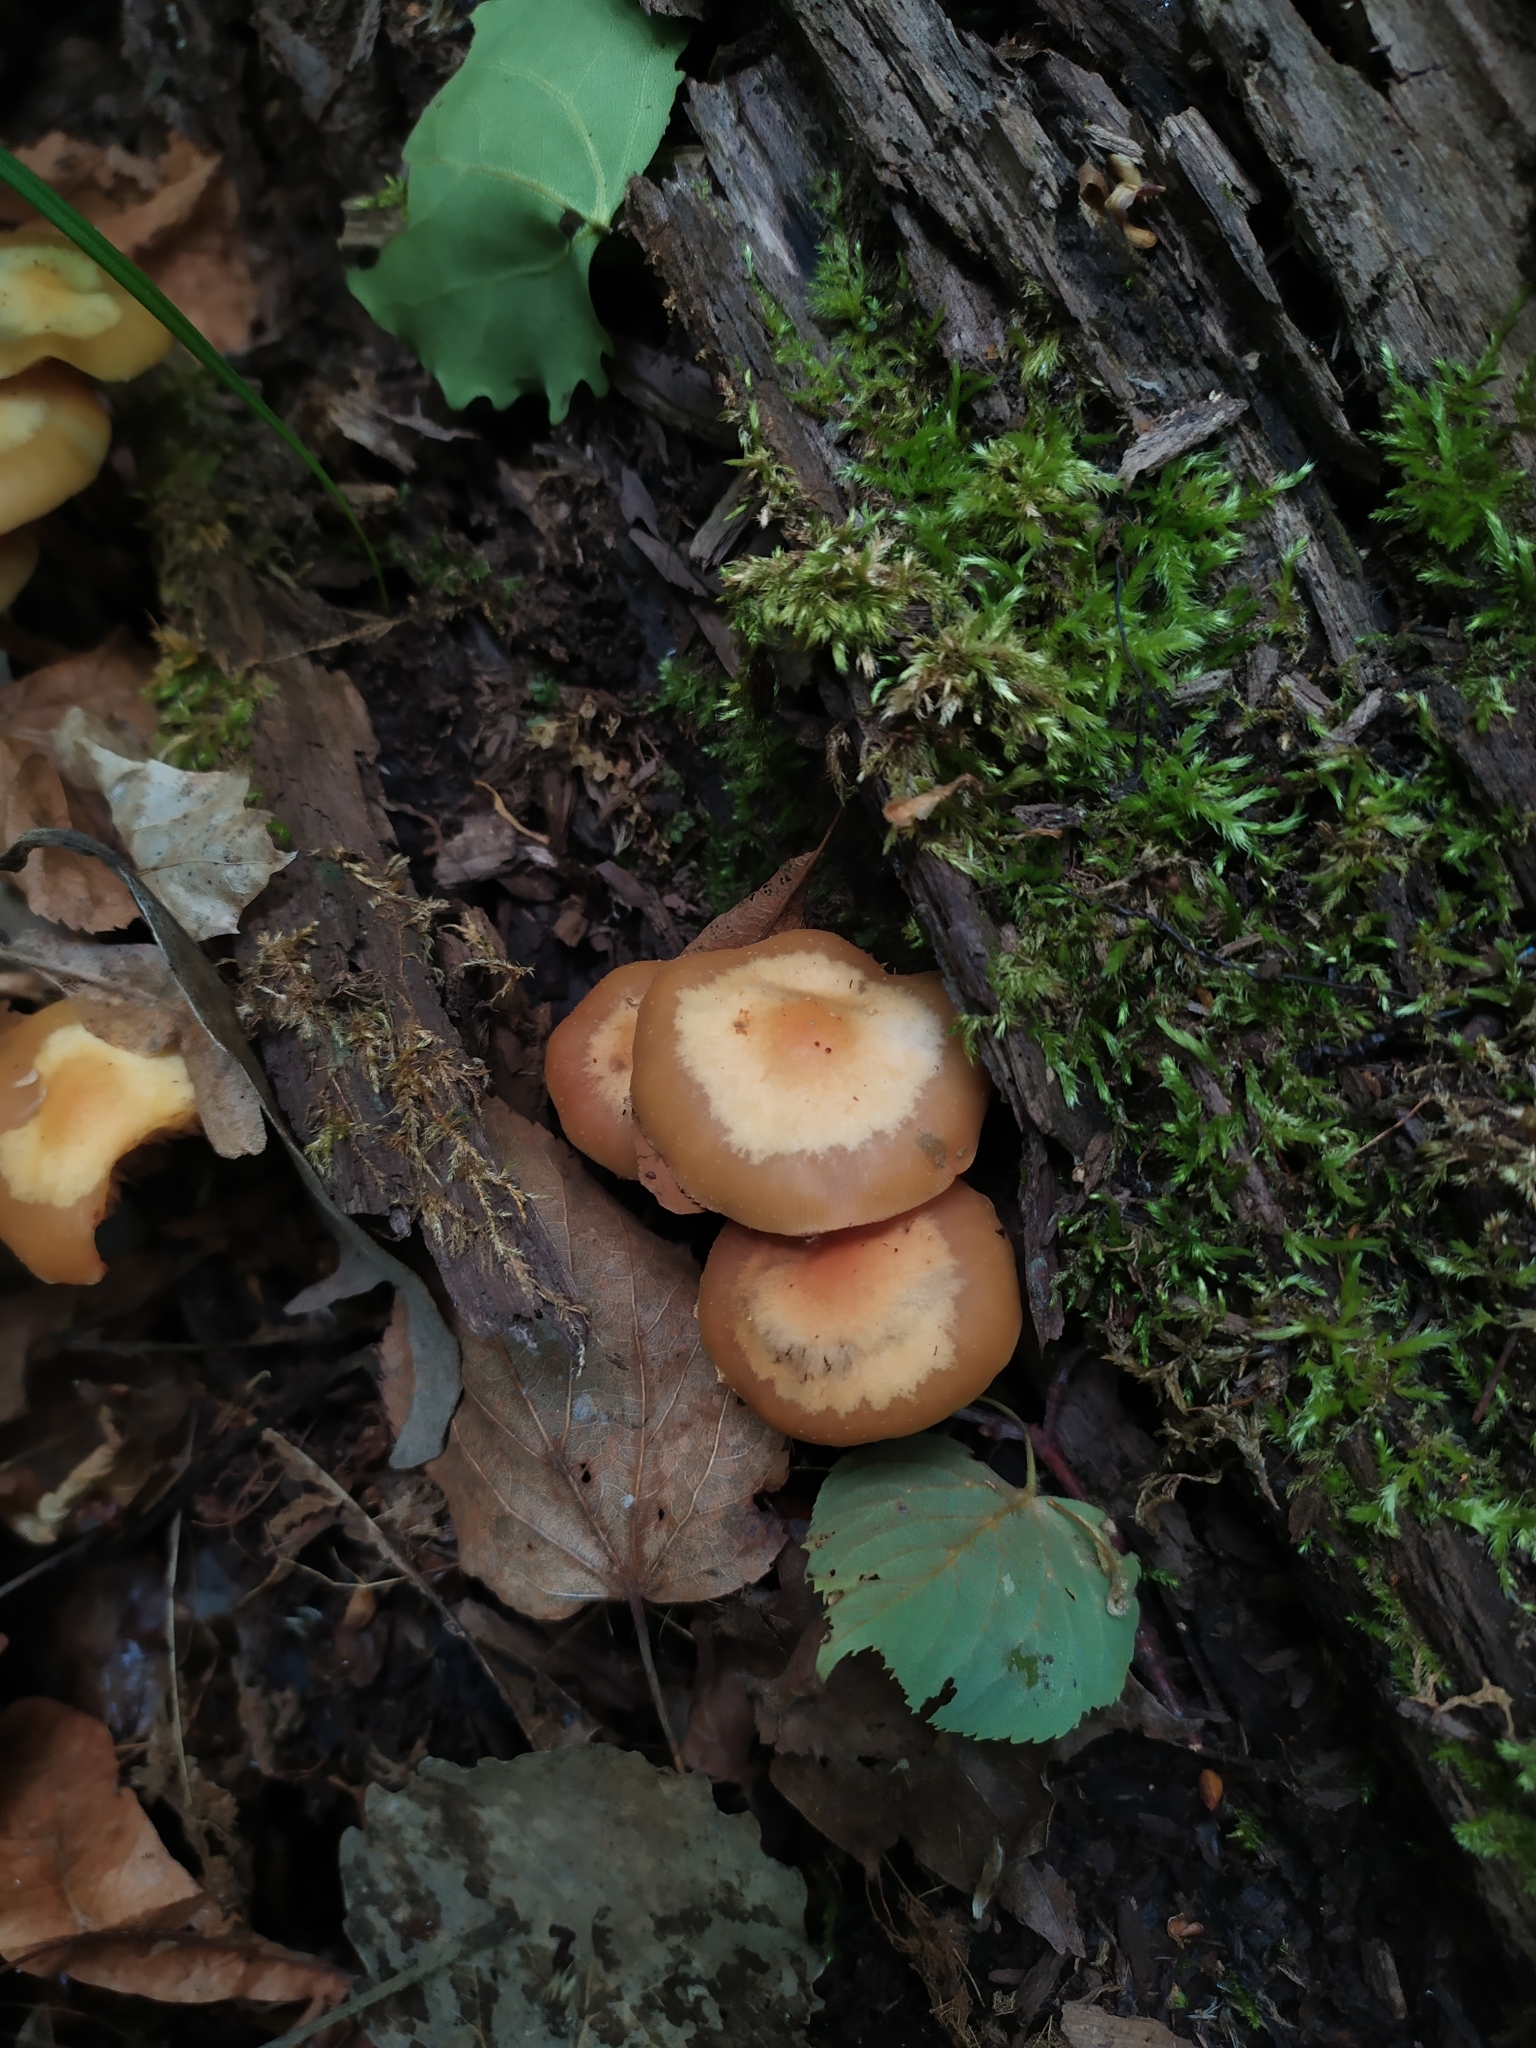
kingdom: Fungi
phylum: Basidiomycota
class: Agaricomycetes
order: Agaricales
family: Strophariaceae
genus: Kuehneromyces
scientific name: Kuehneromyces mutabilis
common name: Sheathed woodtuft
